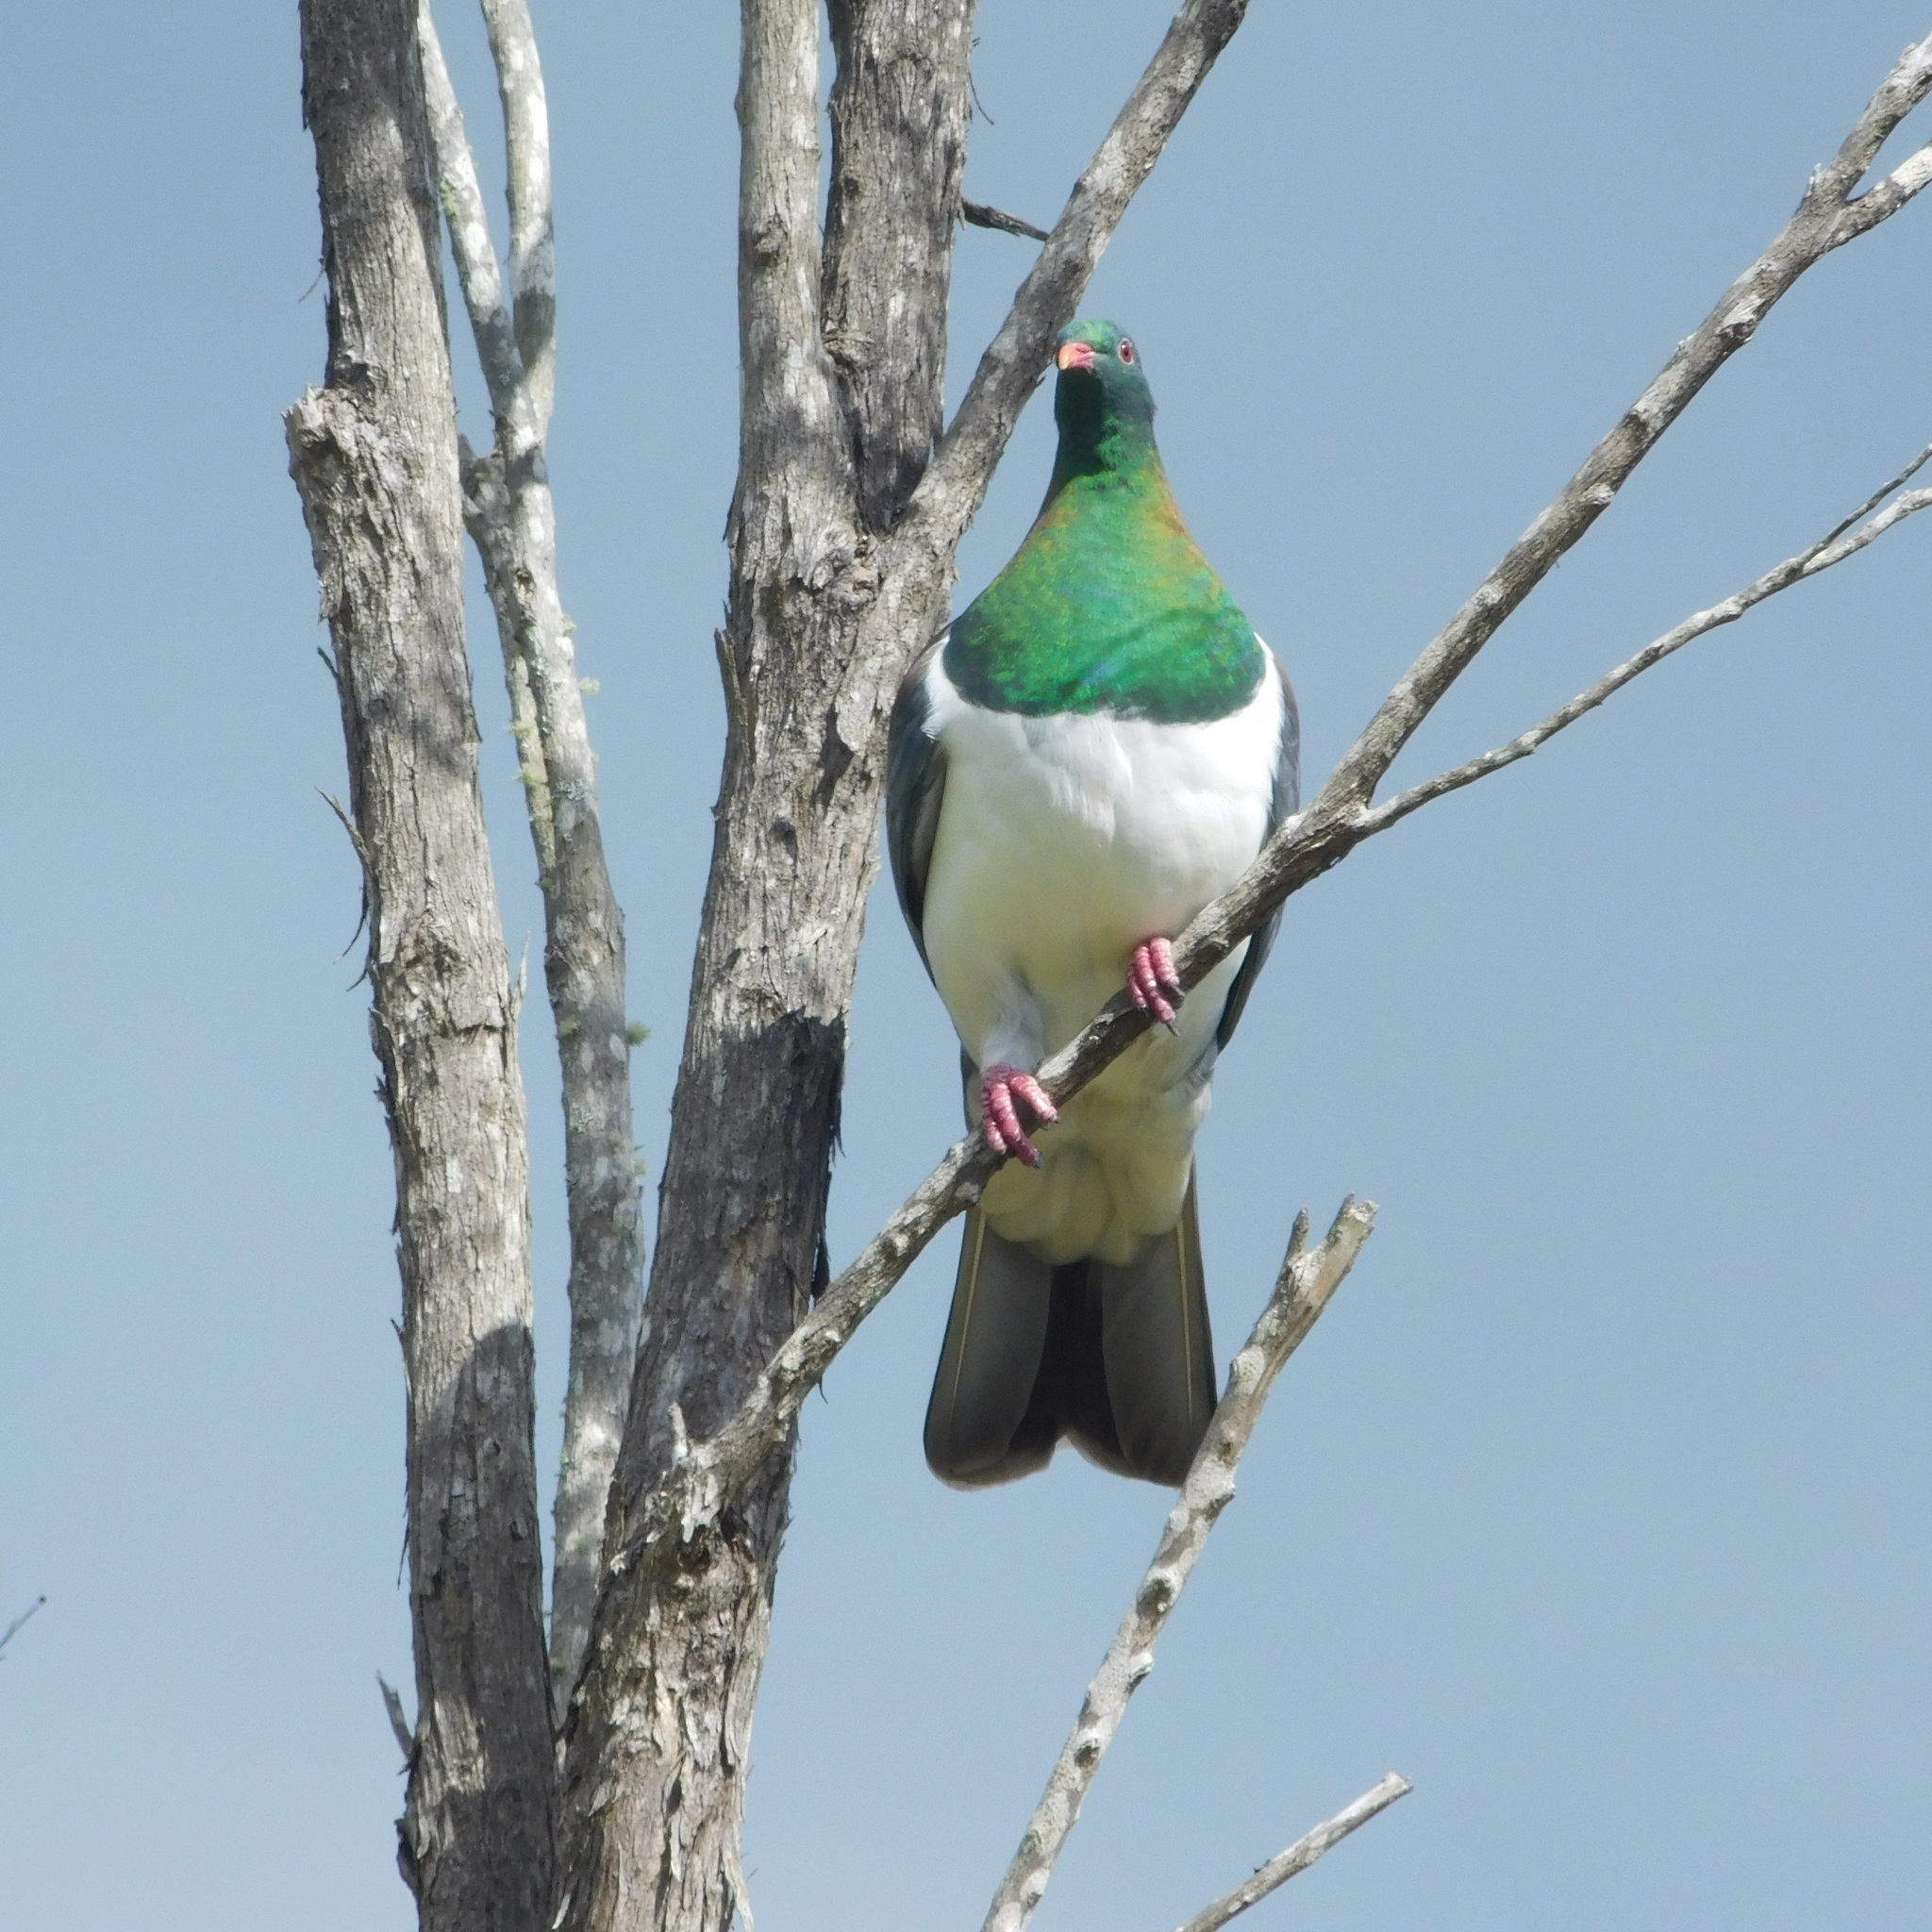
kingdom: Animalia
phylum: Chordata
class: Aves
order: Columbiformes
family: Columbidae
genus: Hemiphaga
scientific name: Hemiphaga novaeseelandiae
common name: New zealand pigeon
